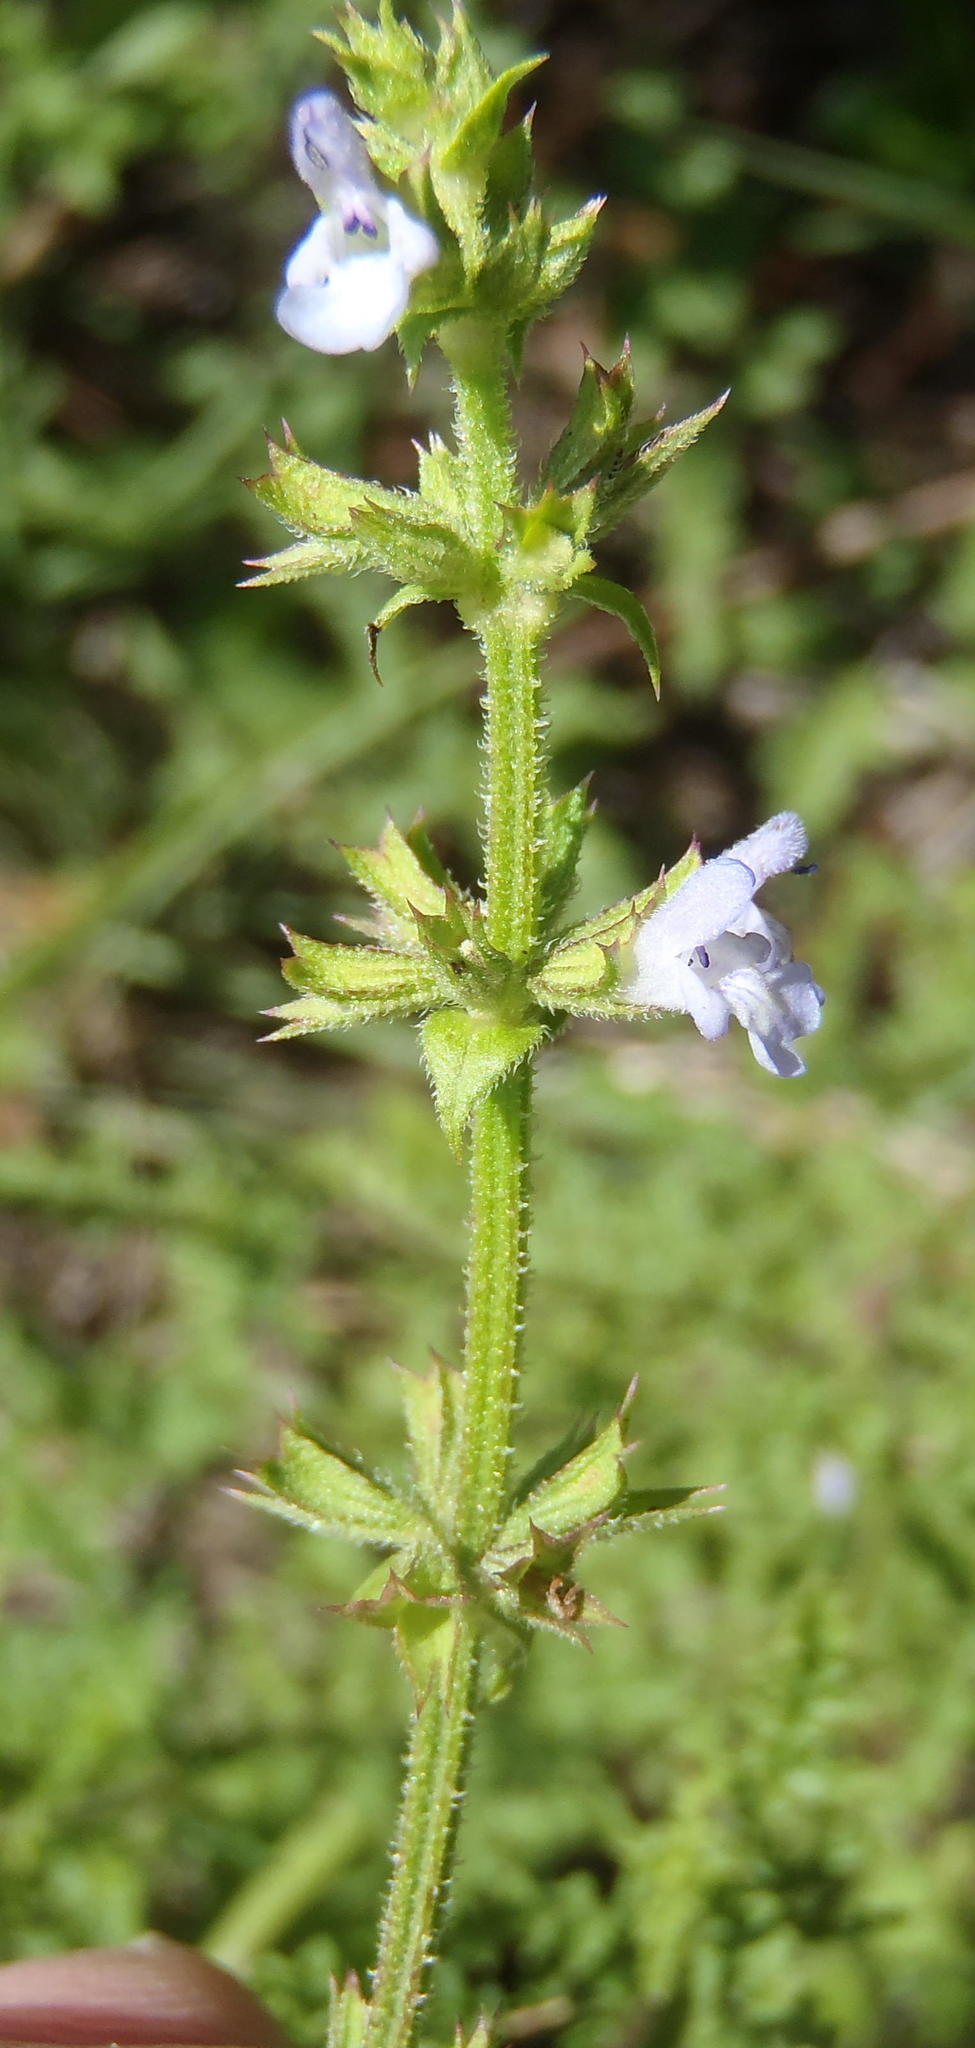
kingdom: Plantae
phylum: Tracheophyta
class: Magnoliopsida
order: Lamiales
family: Lamiaceae
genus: Salvia
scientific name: Salvia runcinata
